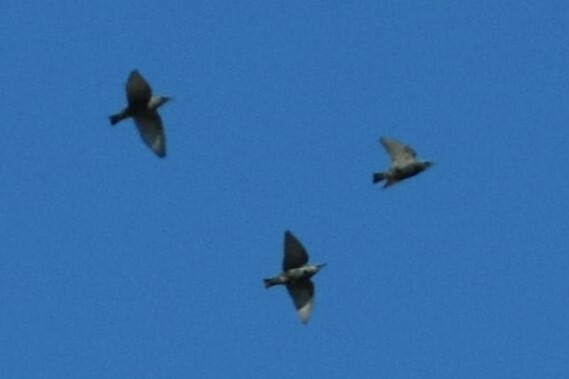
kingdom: Animalia
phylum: Chordata
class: Aves
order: Passeriformes
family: Sturnidae
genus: Sturnus
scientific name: Sturnus vulgaris
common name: Common starling
